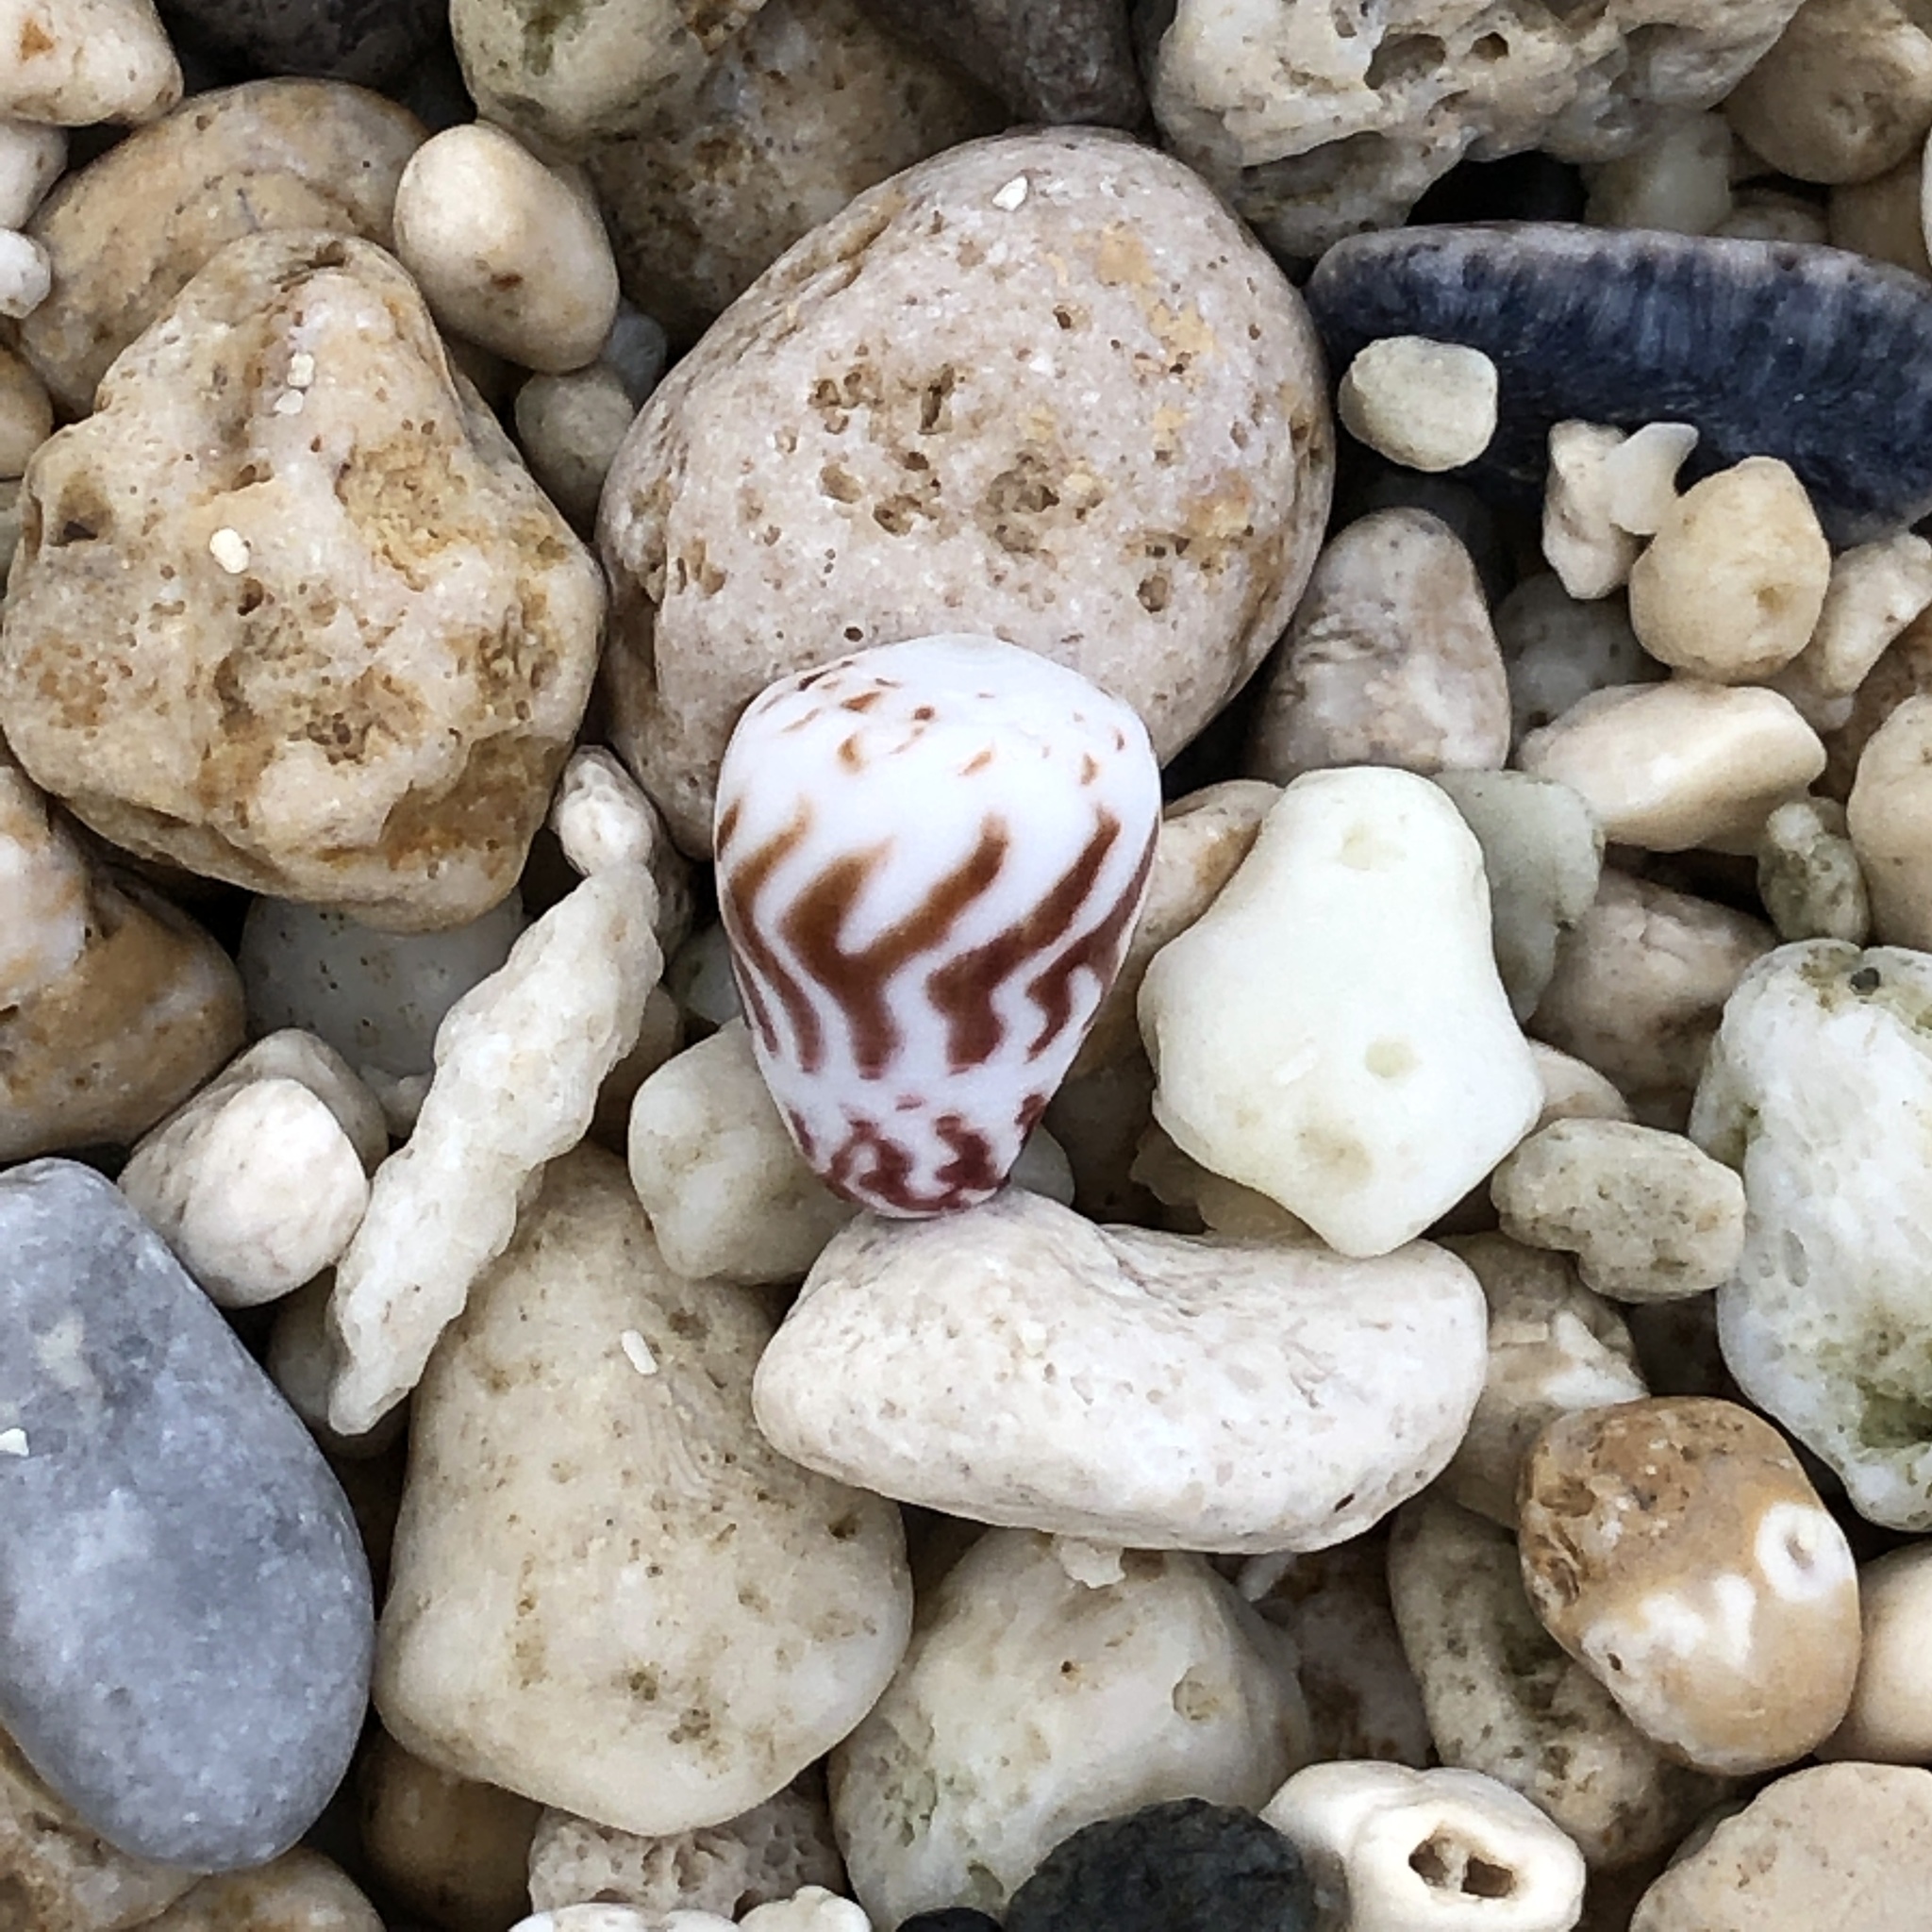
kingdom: Animalia
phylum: Mollusca
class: Gastropoda
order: Neogastropoda
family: Conidae
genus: Conus
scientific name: Conus sponsalis
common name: Sponsal cone
